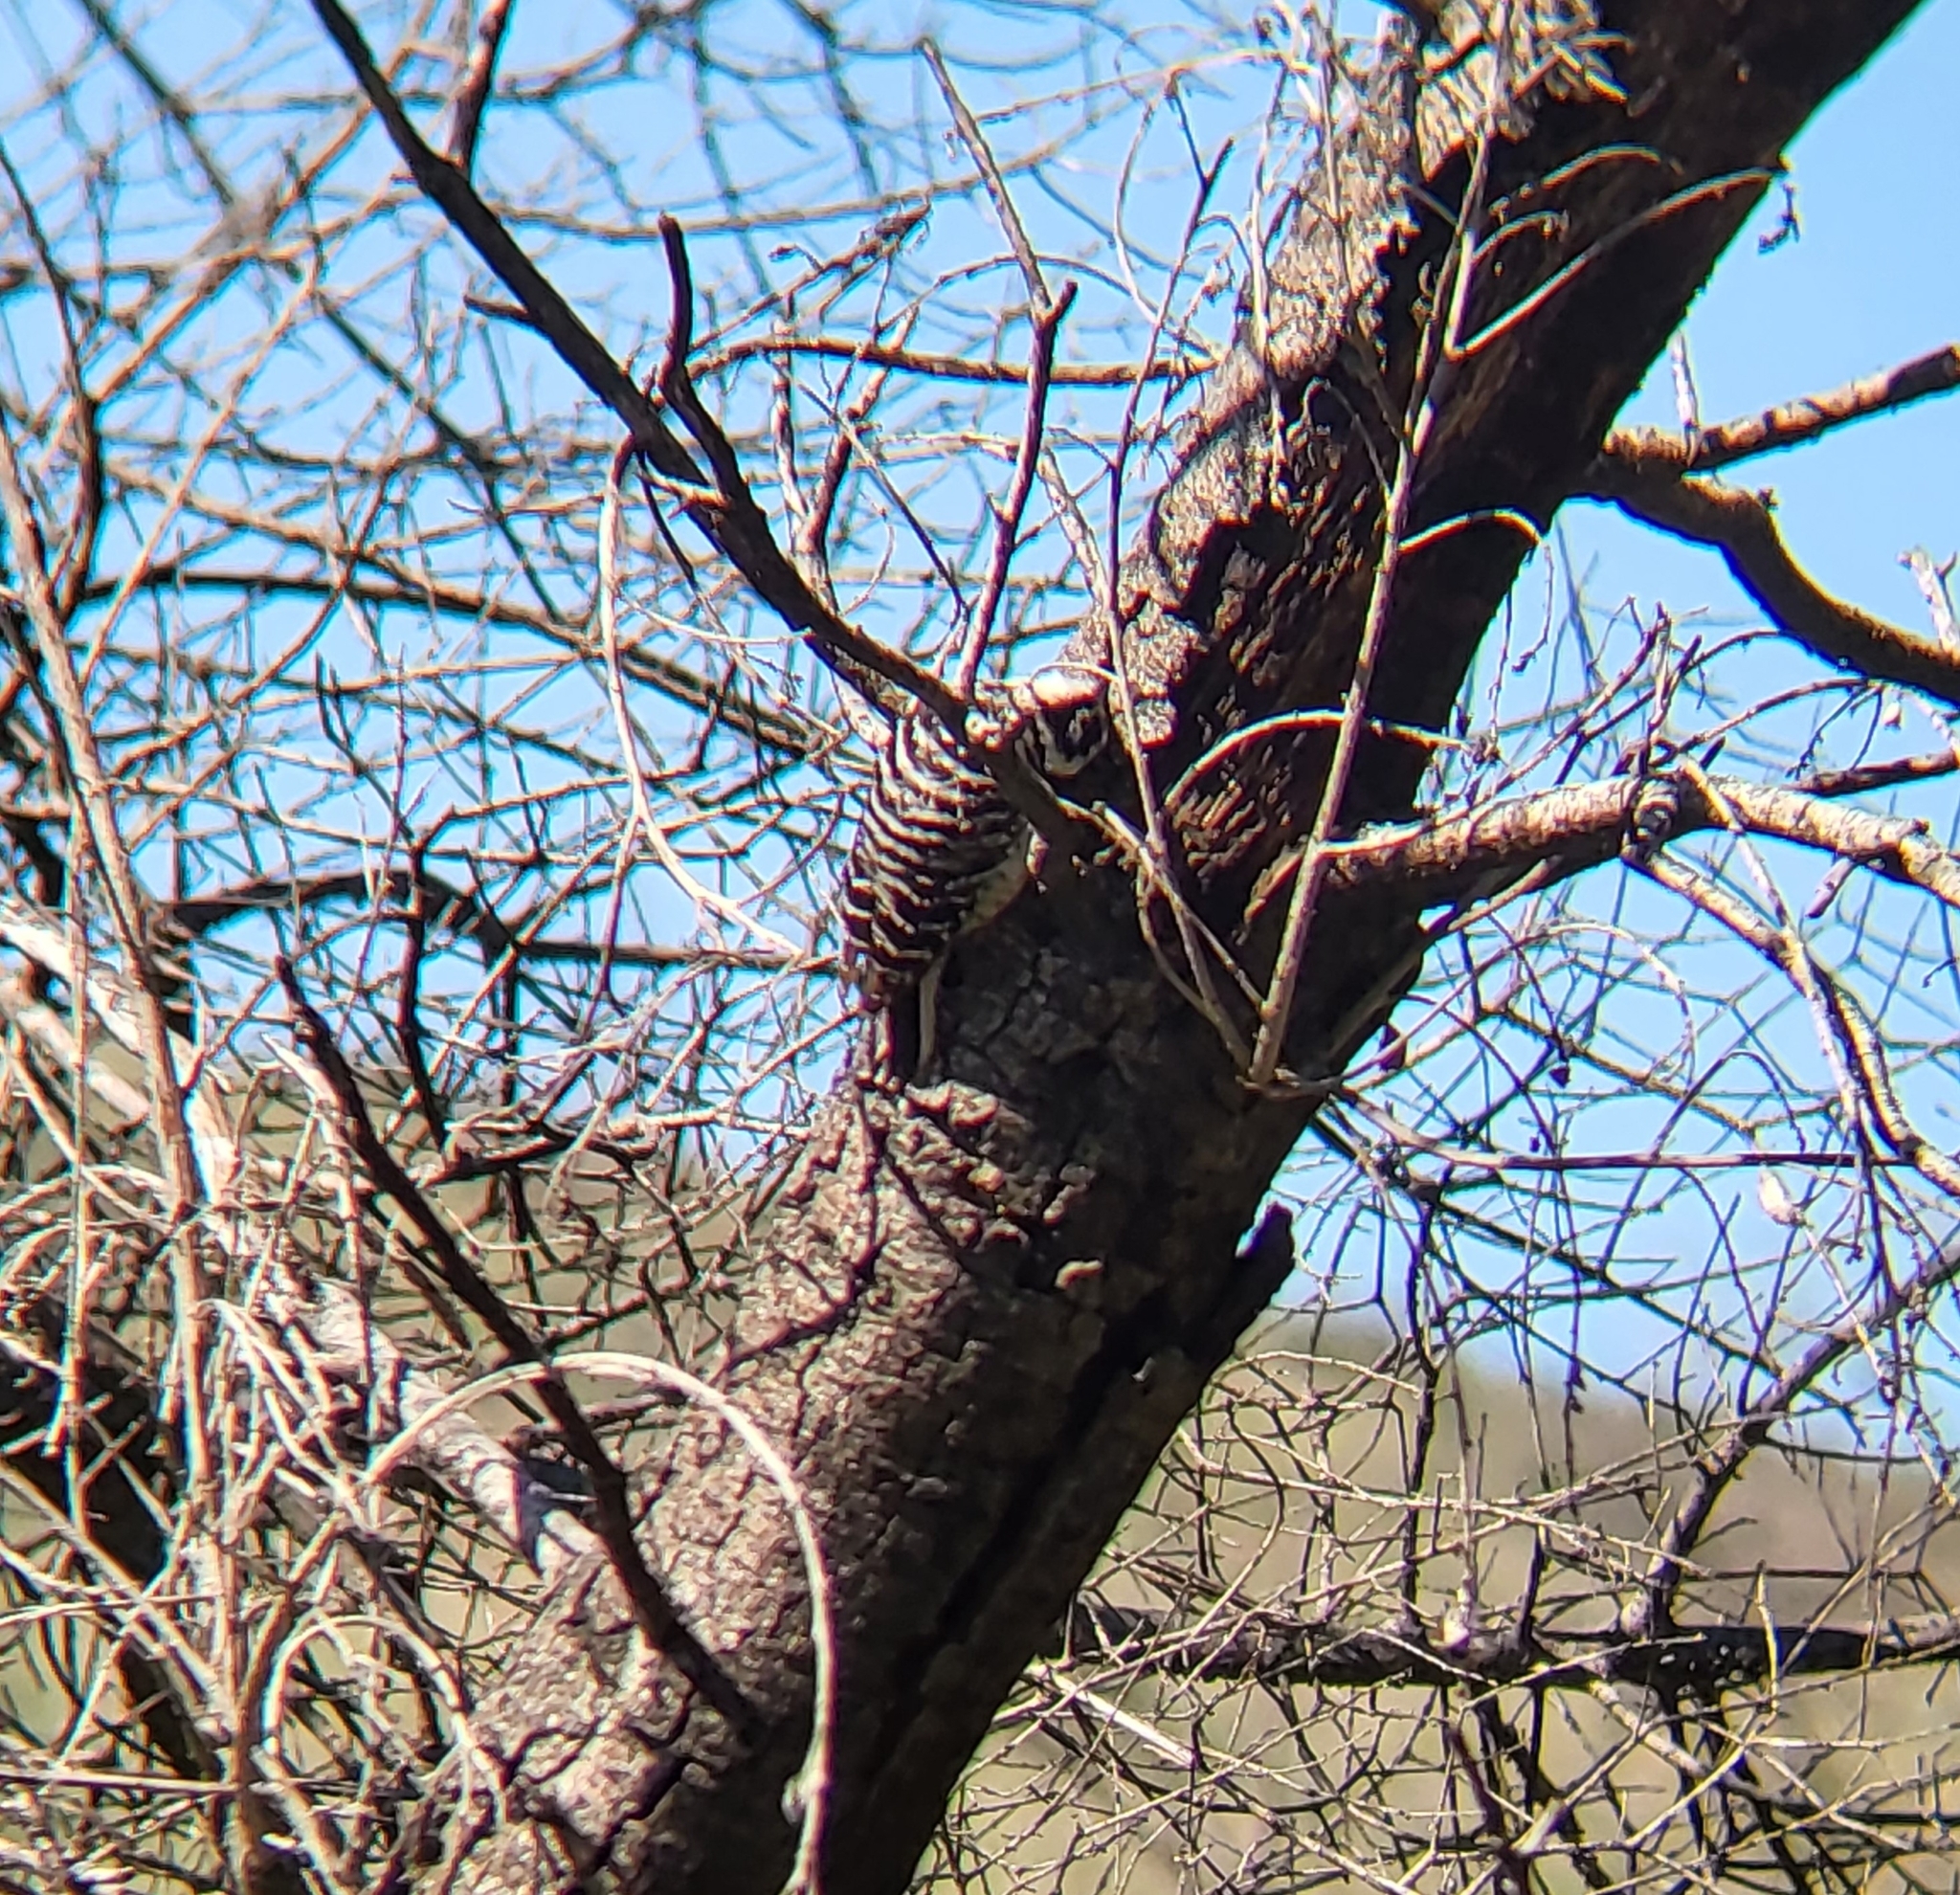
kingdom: Animalia
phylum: Chordata
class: Aves
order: Piciformes
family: Picidae
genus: Dryobates
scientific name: Dryobates nuttallii
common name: Nuttall's woodpecker
